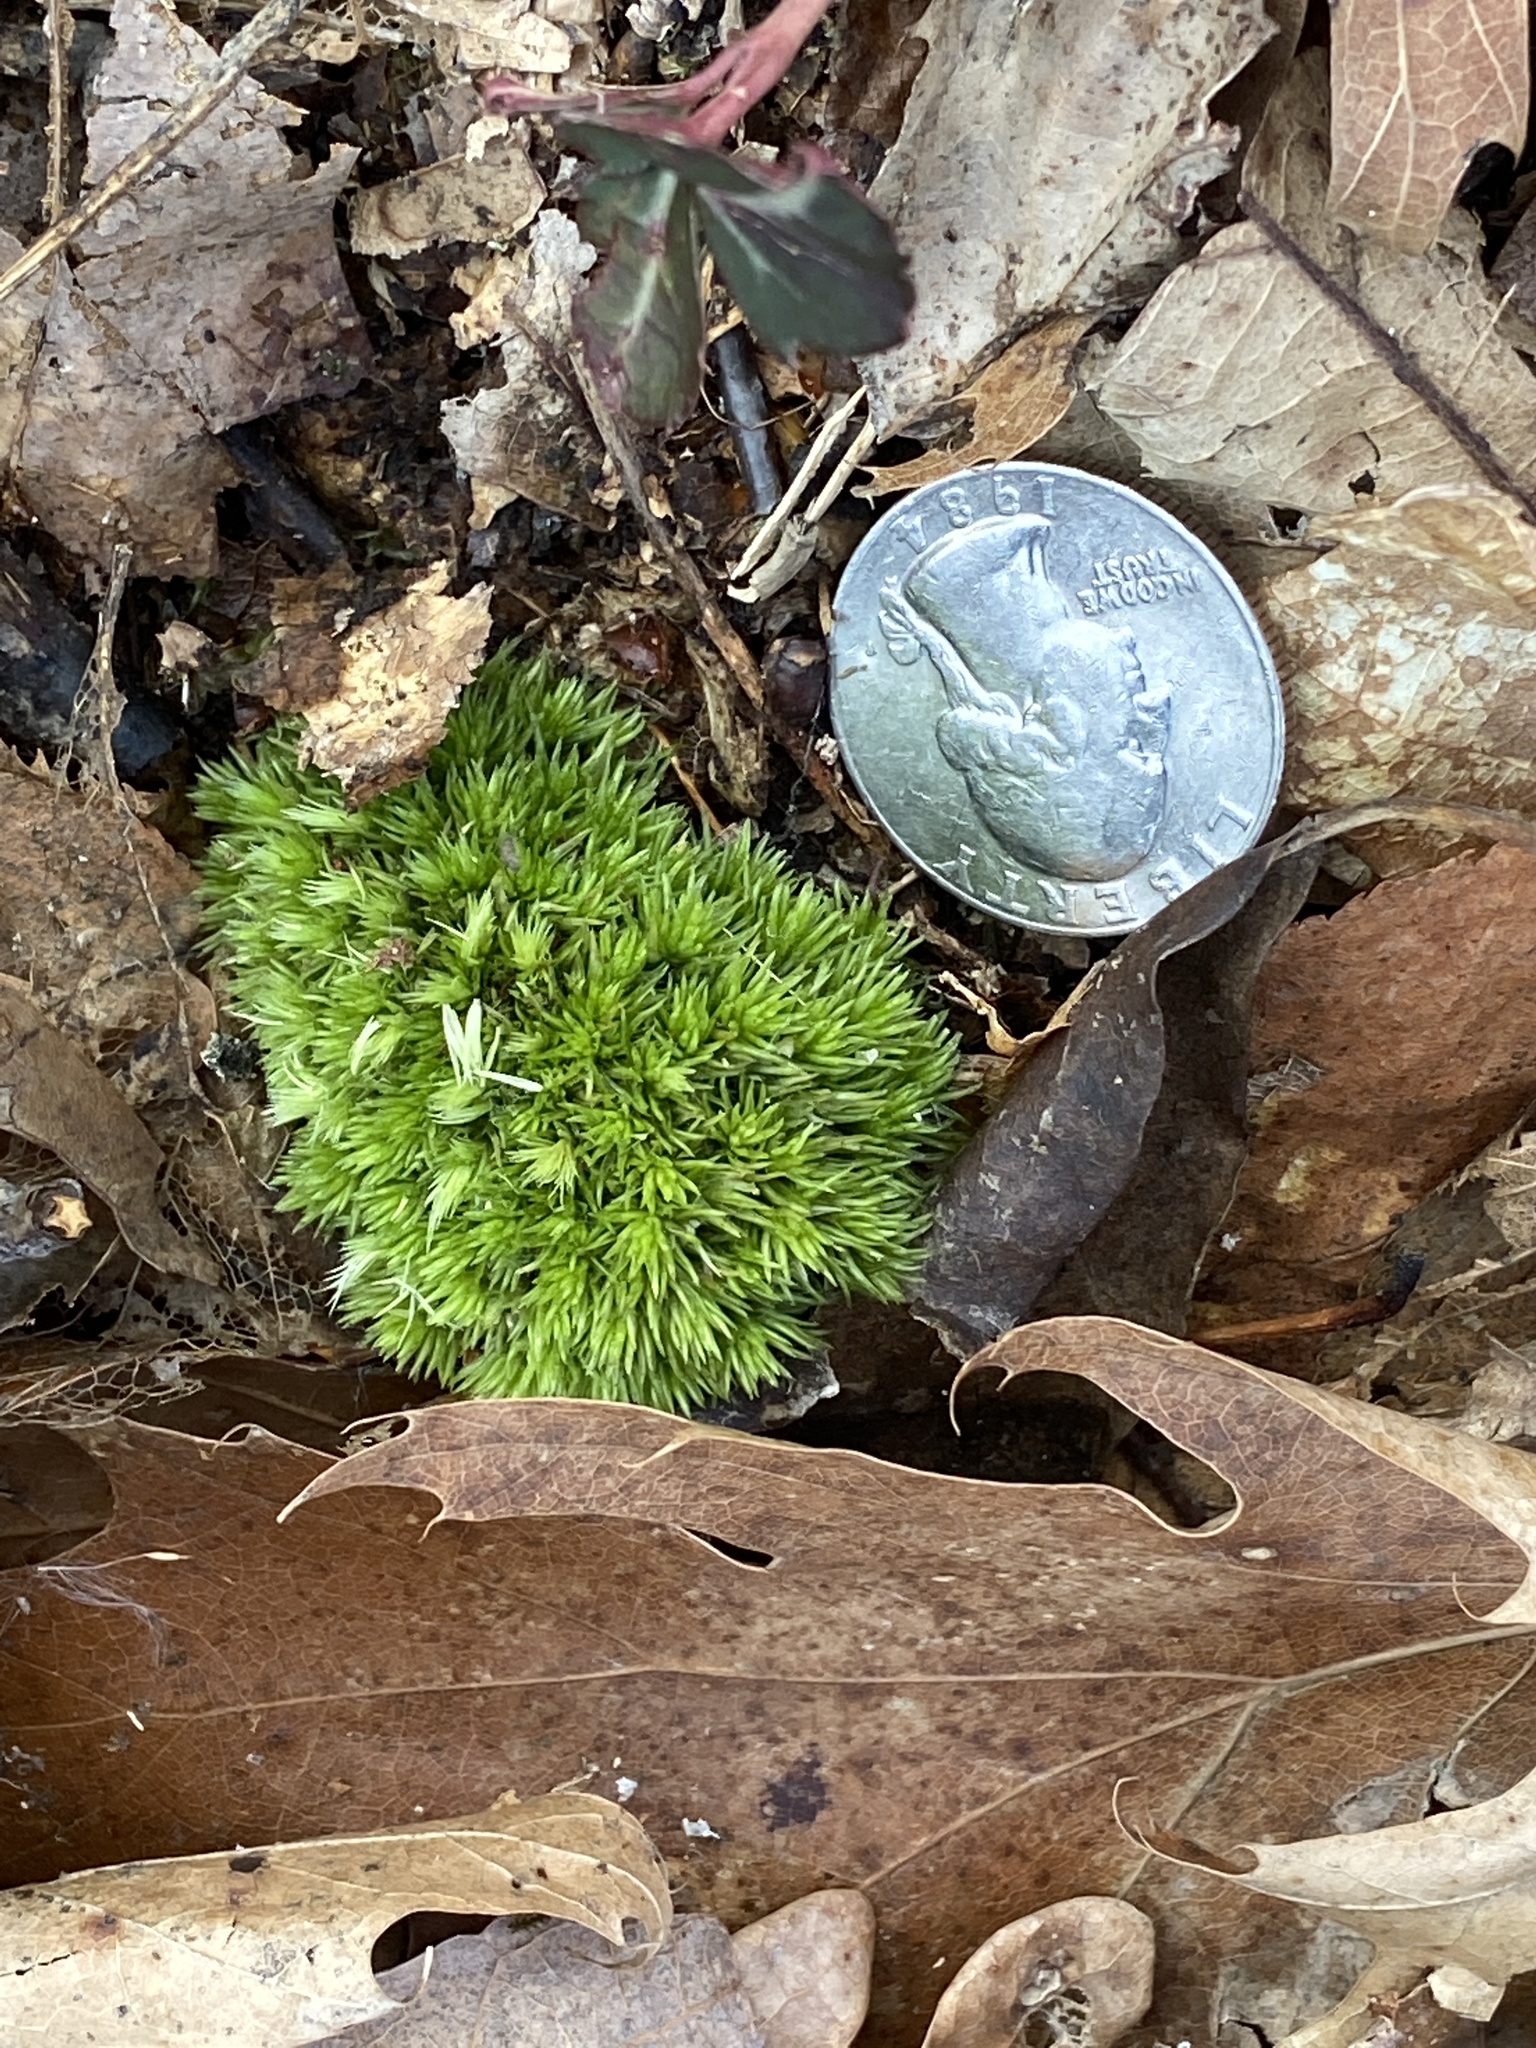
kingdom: Plantae
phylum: Bryophyta
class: Bryopsida
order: Dicranales
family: Leucobryaceae
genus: Leucobryum
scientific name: Leucobryum glaucum
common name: Large white-moss
